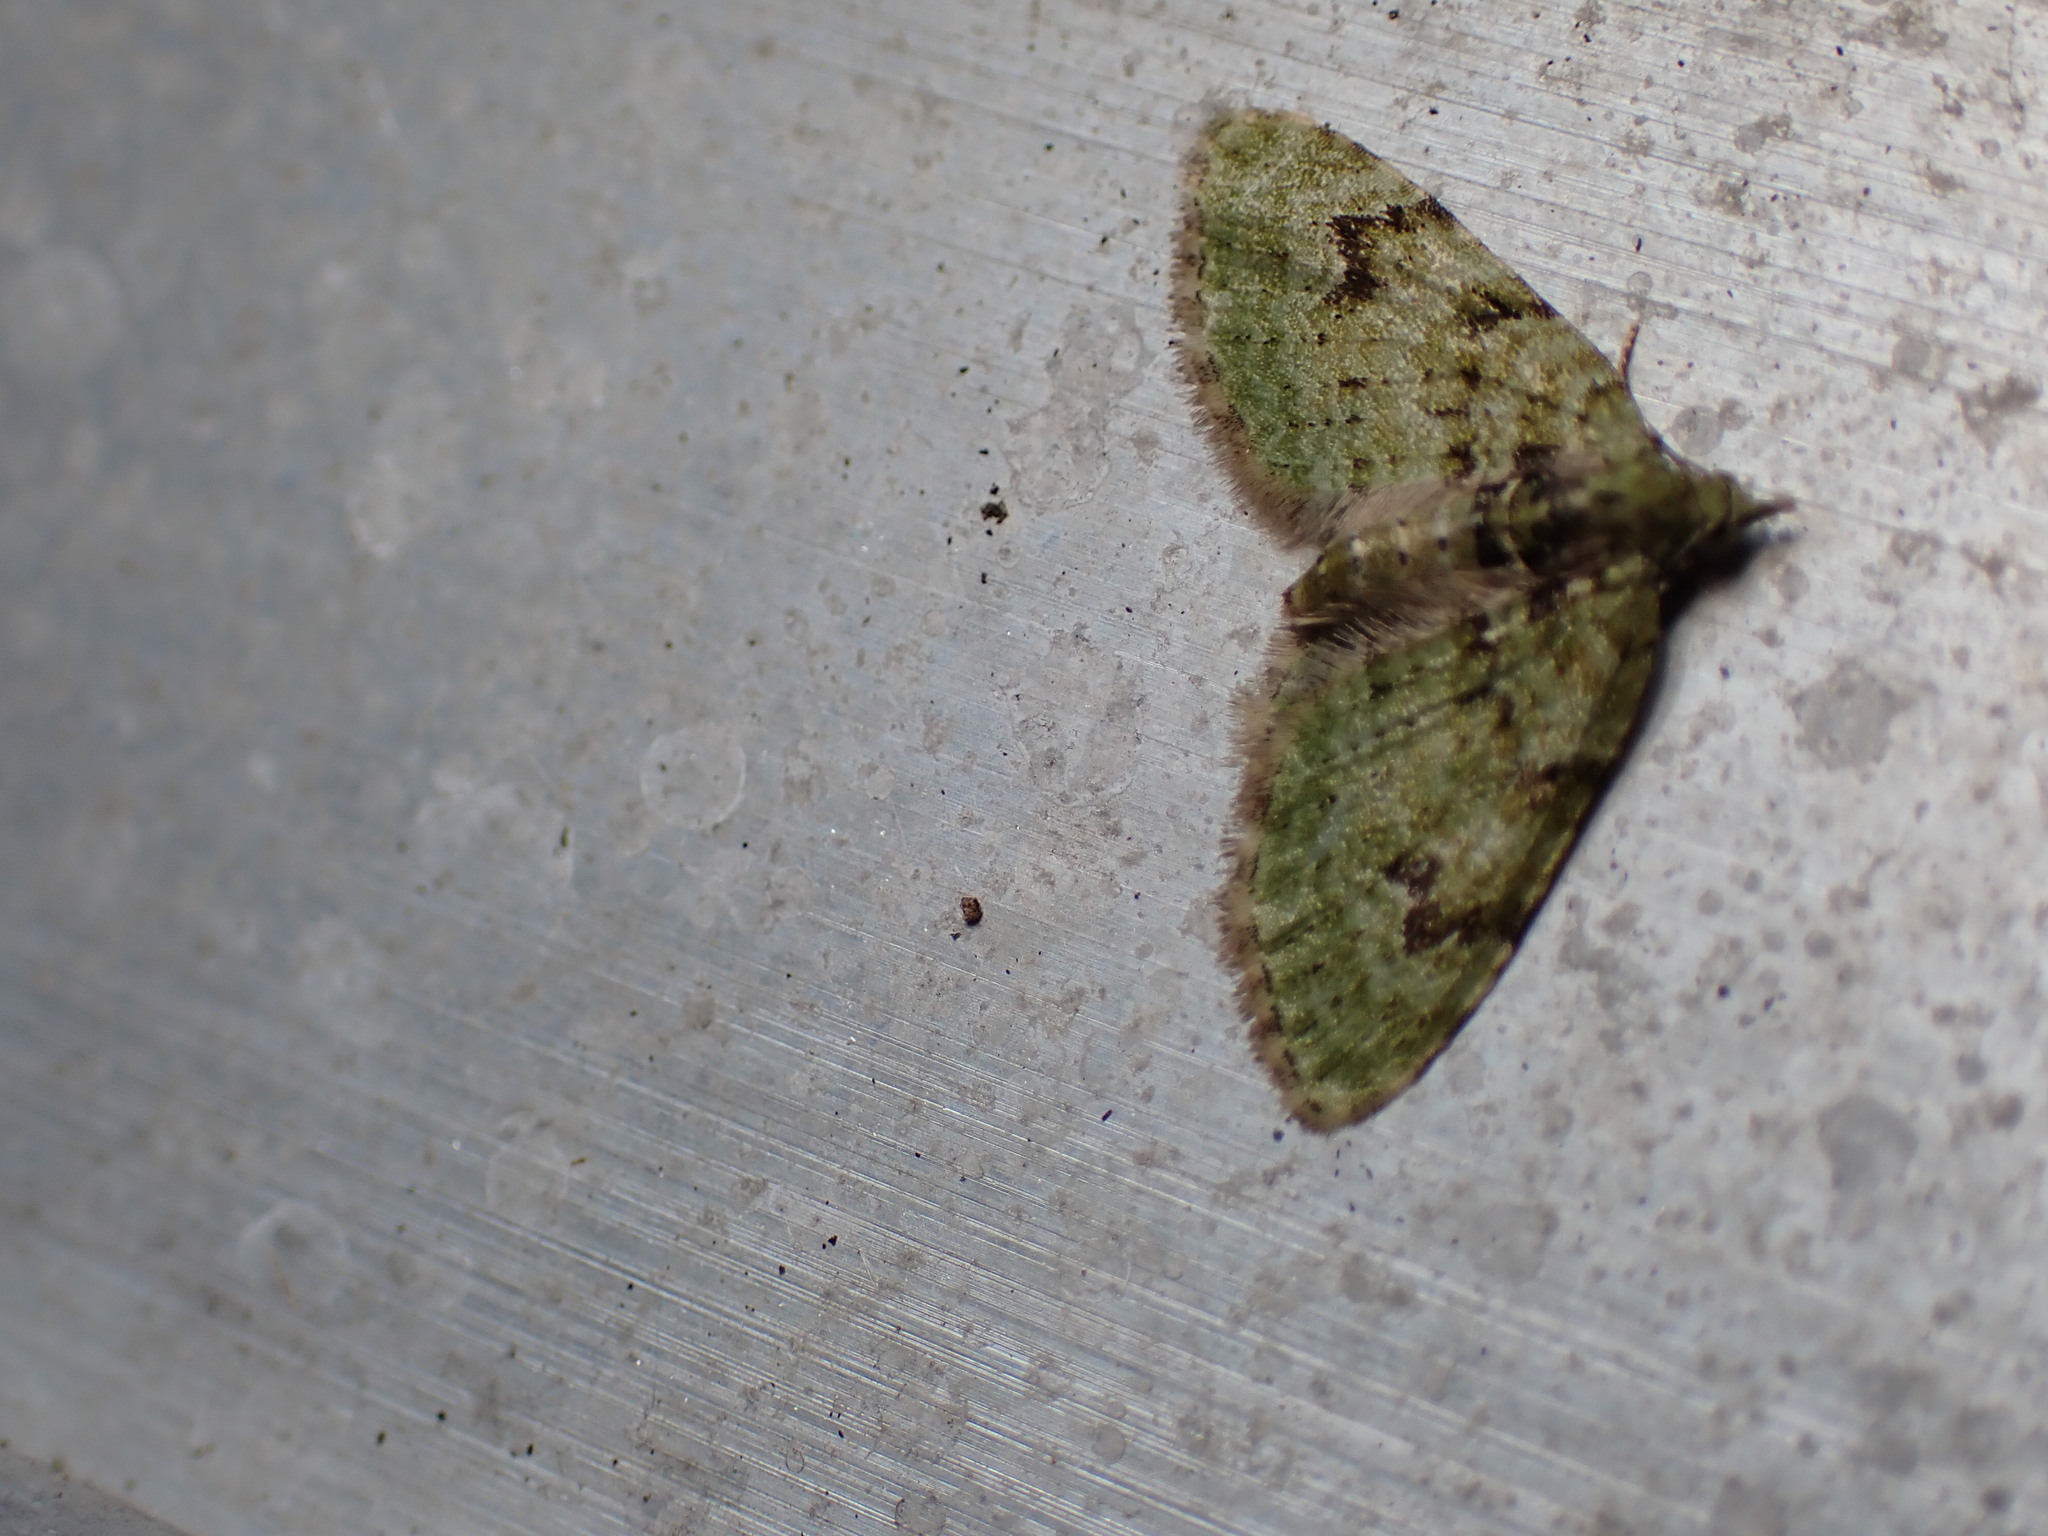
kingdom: Animalia
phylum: Arthropoda
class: Insecta
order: Lepidoptera
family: Geometridae
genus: Chloroclystis
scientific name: Chloroclystis v-ata
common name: V-pug
